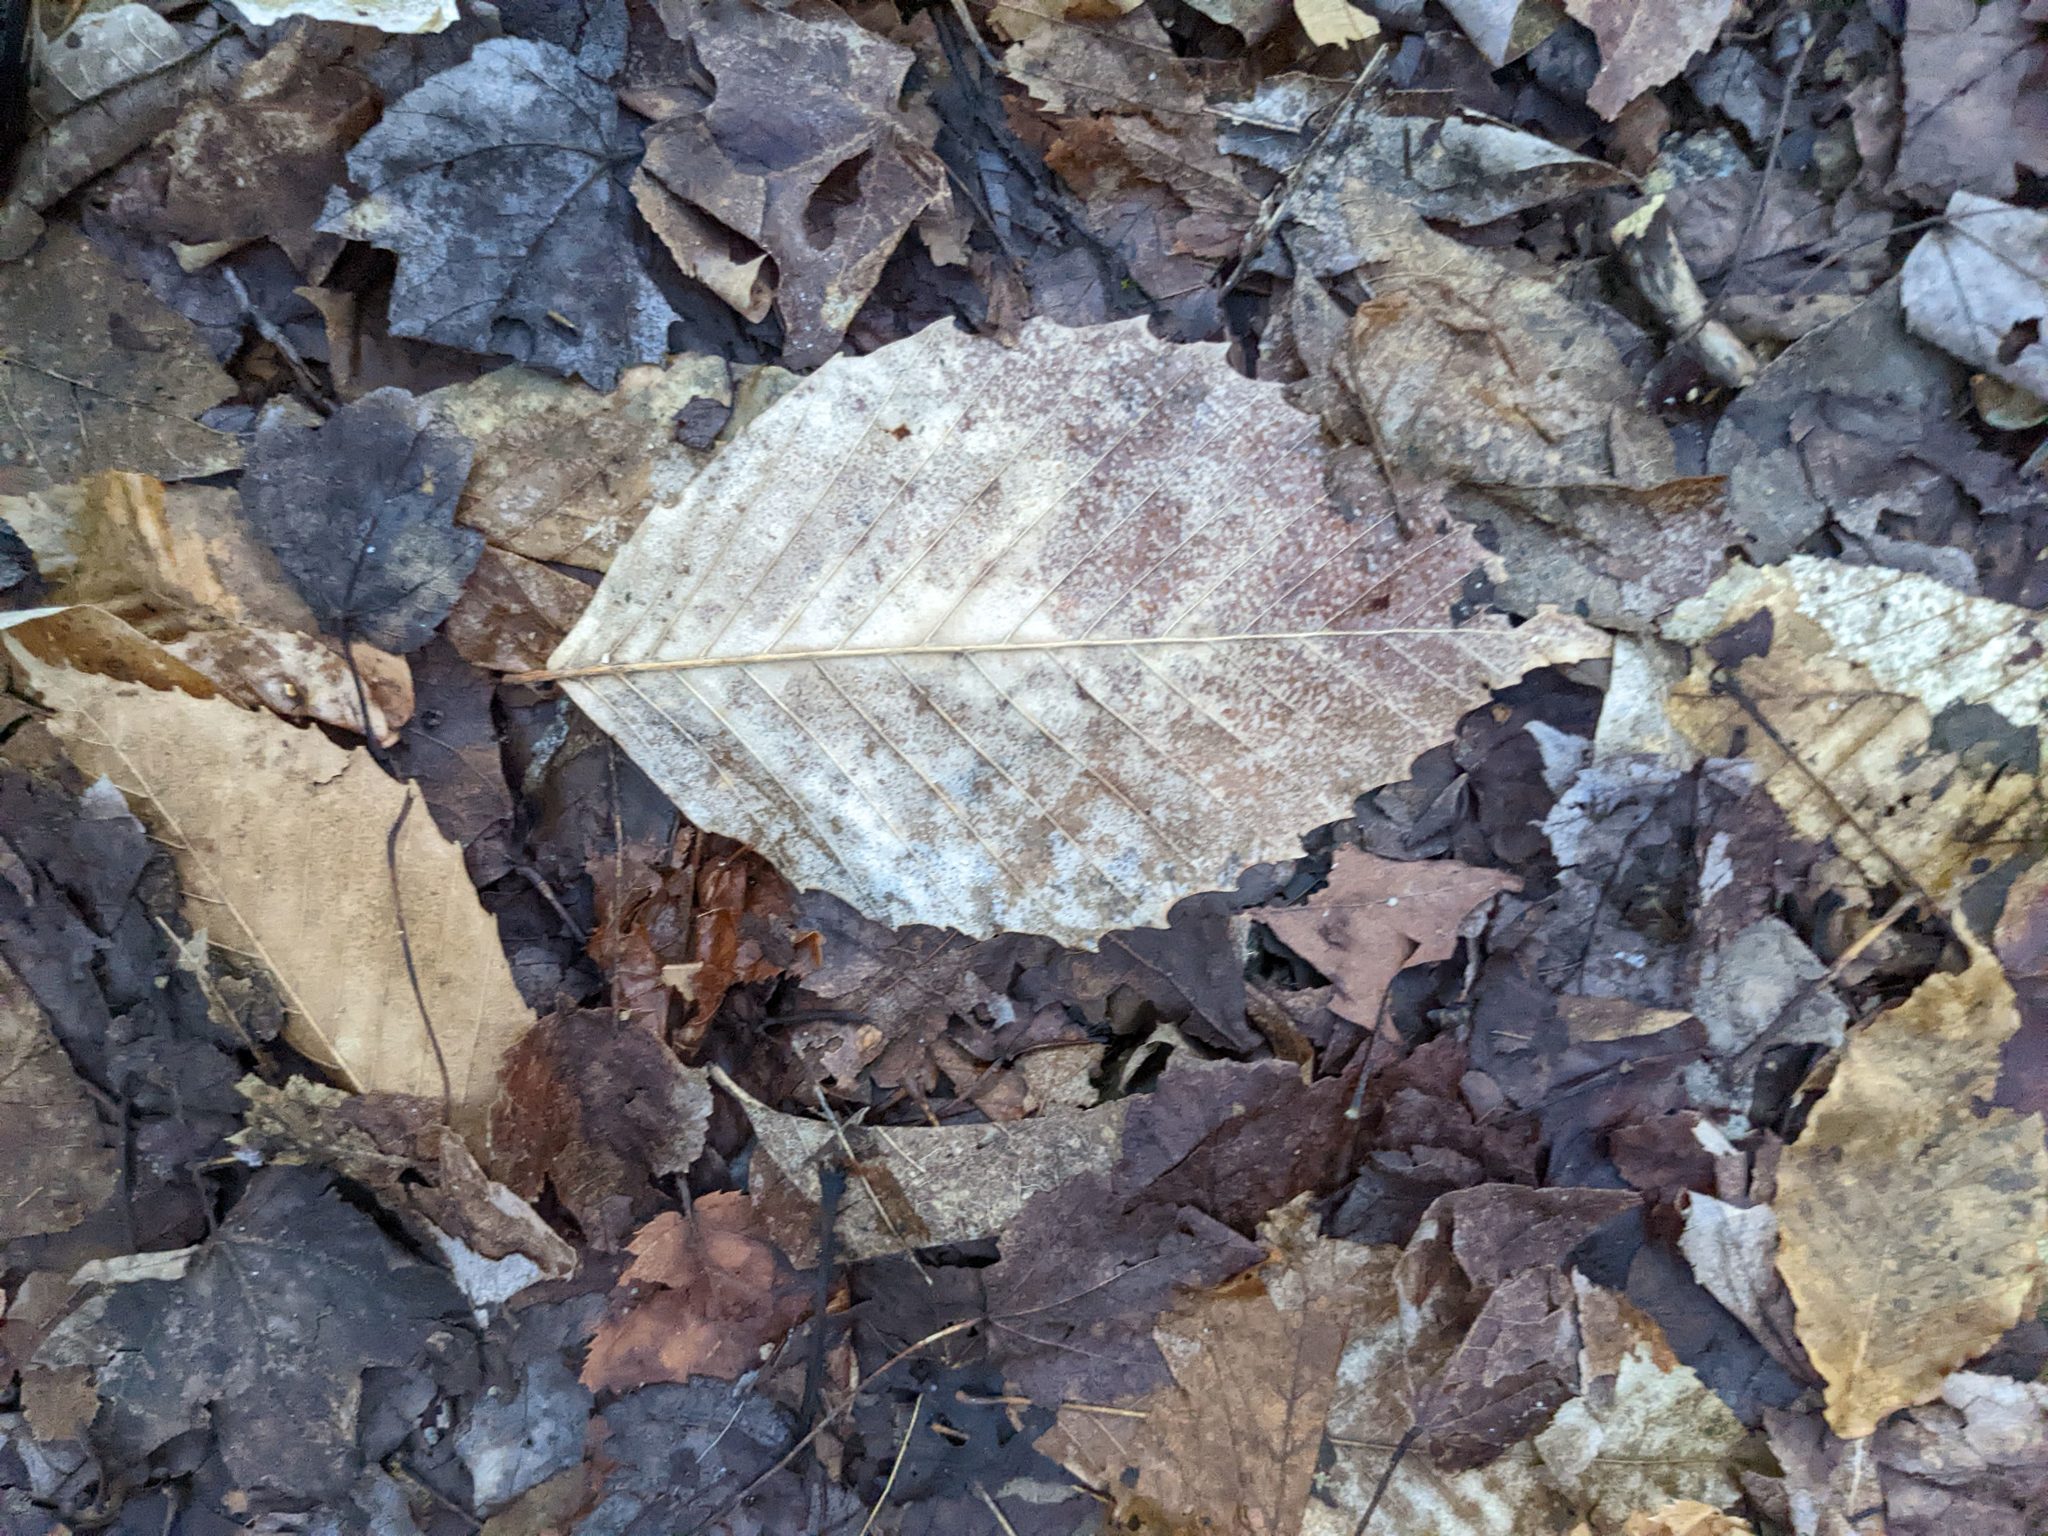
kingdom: Plantae
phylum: Tracheophyta
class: Magnoliopsida
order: Fagales
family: Fagaceae
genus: Fagus
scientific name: Fagus grandifolia
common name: American beech
